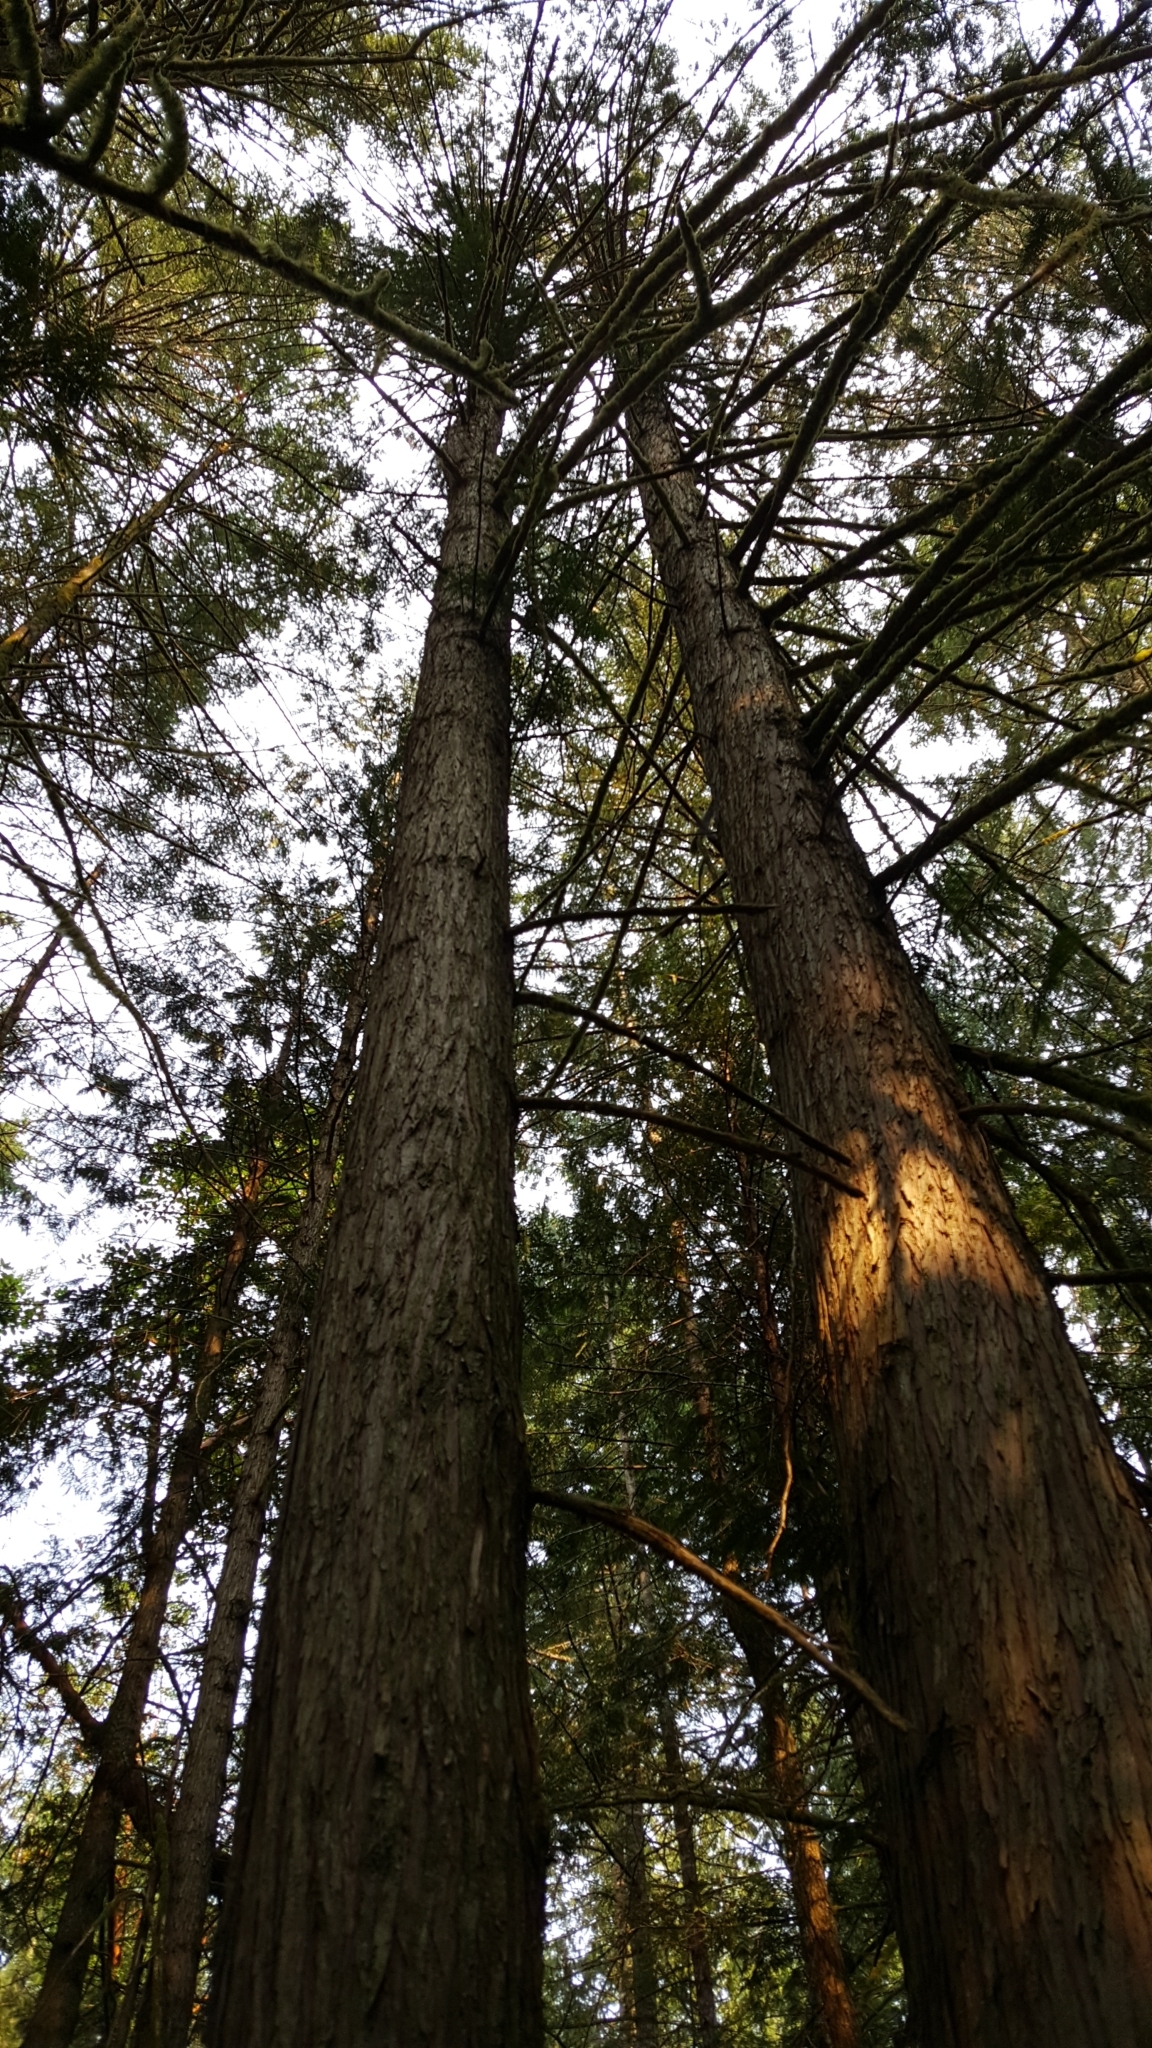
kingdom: Plantae
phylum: Tracheophyta
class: Pinopsida
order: Pinales
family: Cupressaceae
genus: Thuja
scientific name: Thuja plicata
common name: Western red-cedar
